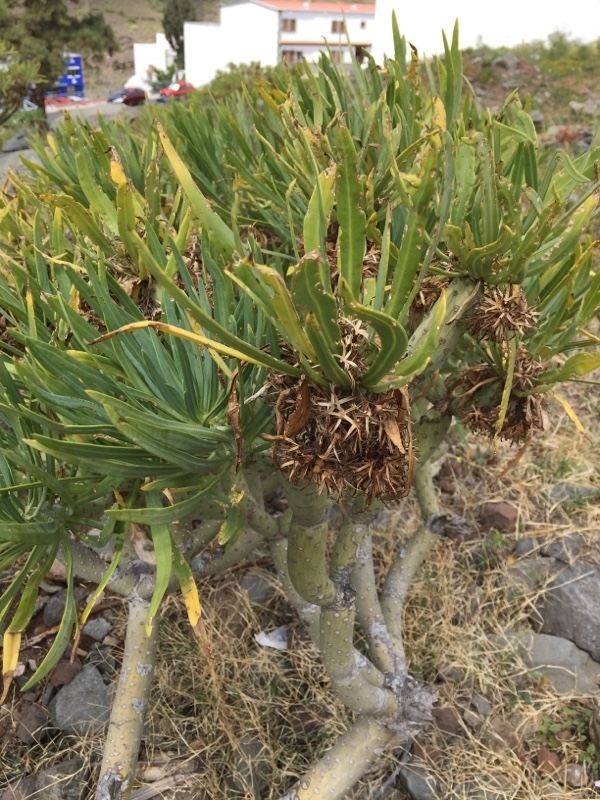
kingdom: Plantae
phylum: Tracheophyta
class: Magnoliopsida
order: Asterales
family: Asteraceae
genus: Kleinia
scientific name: Kleinia neriifolia
